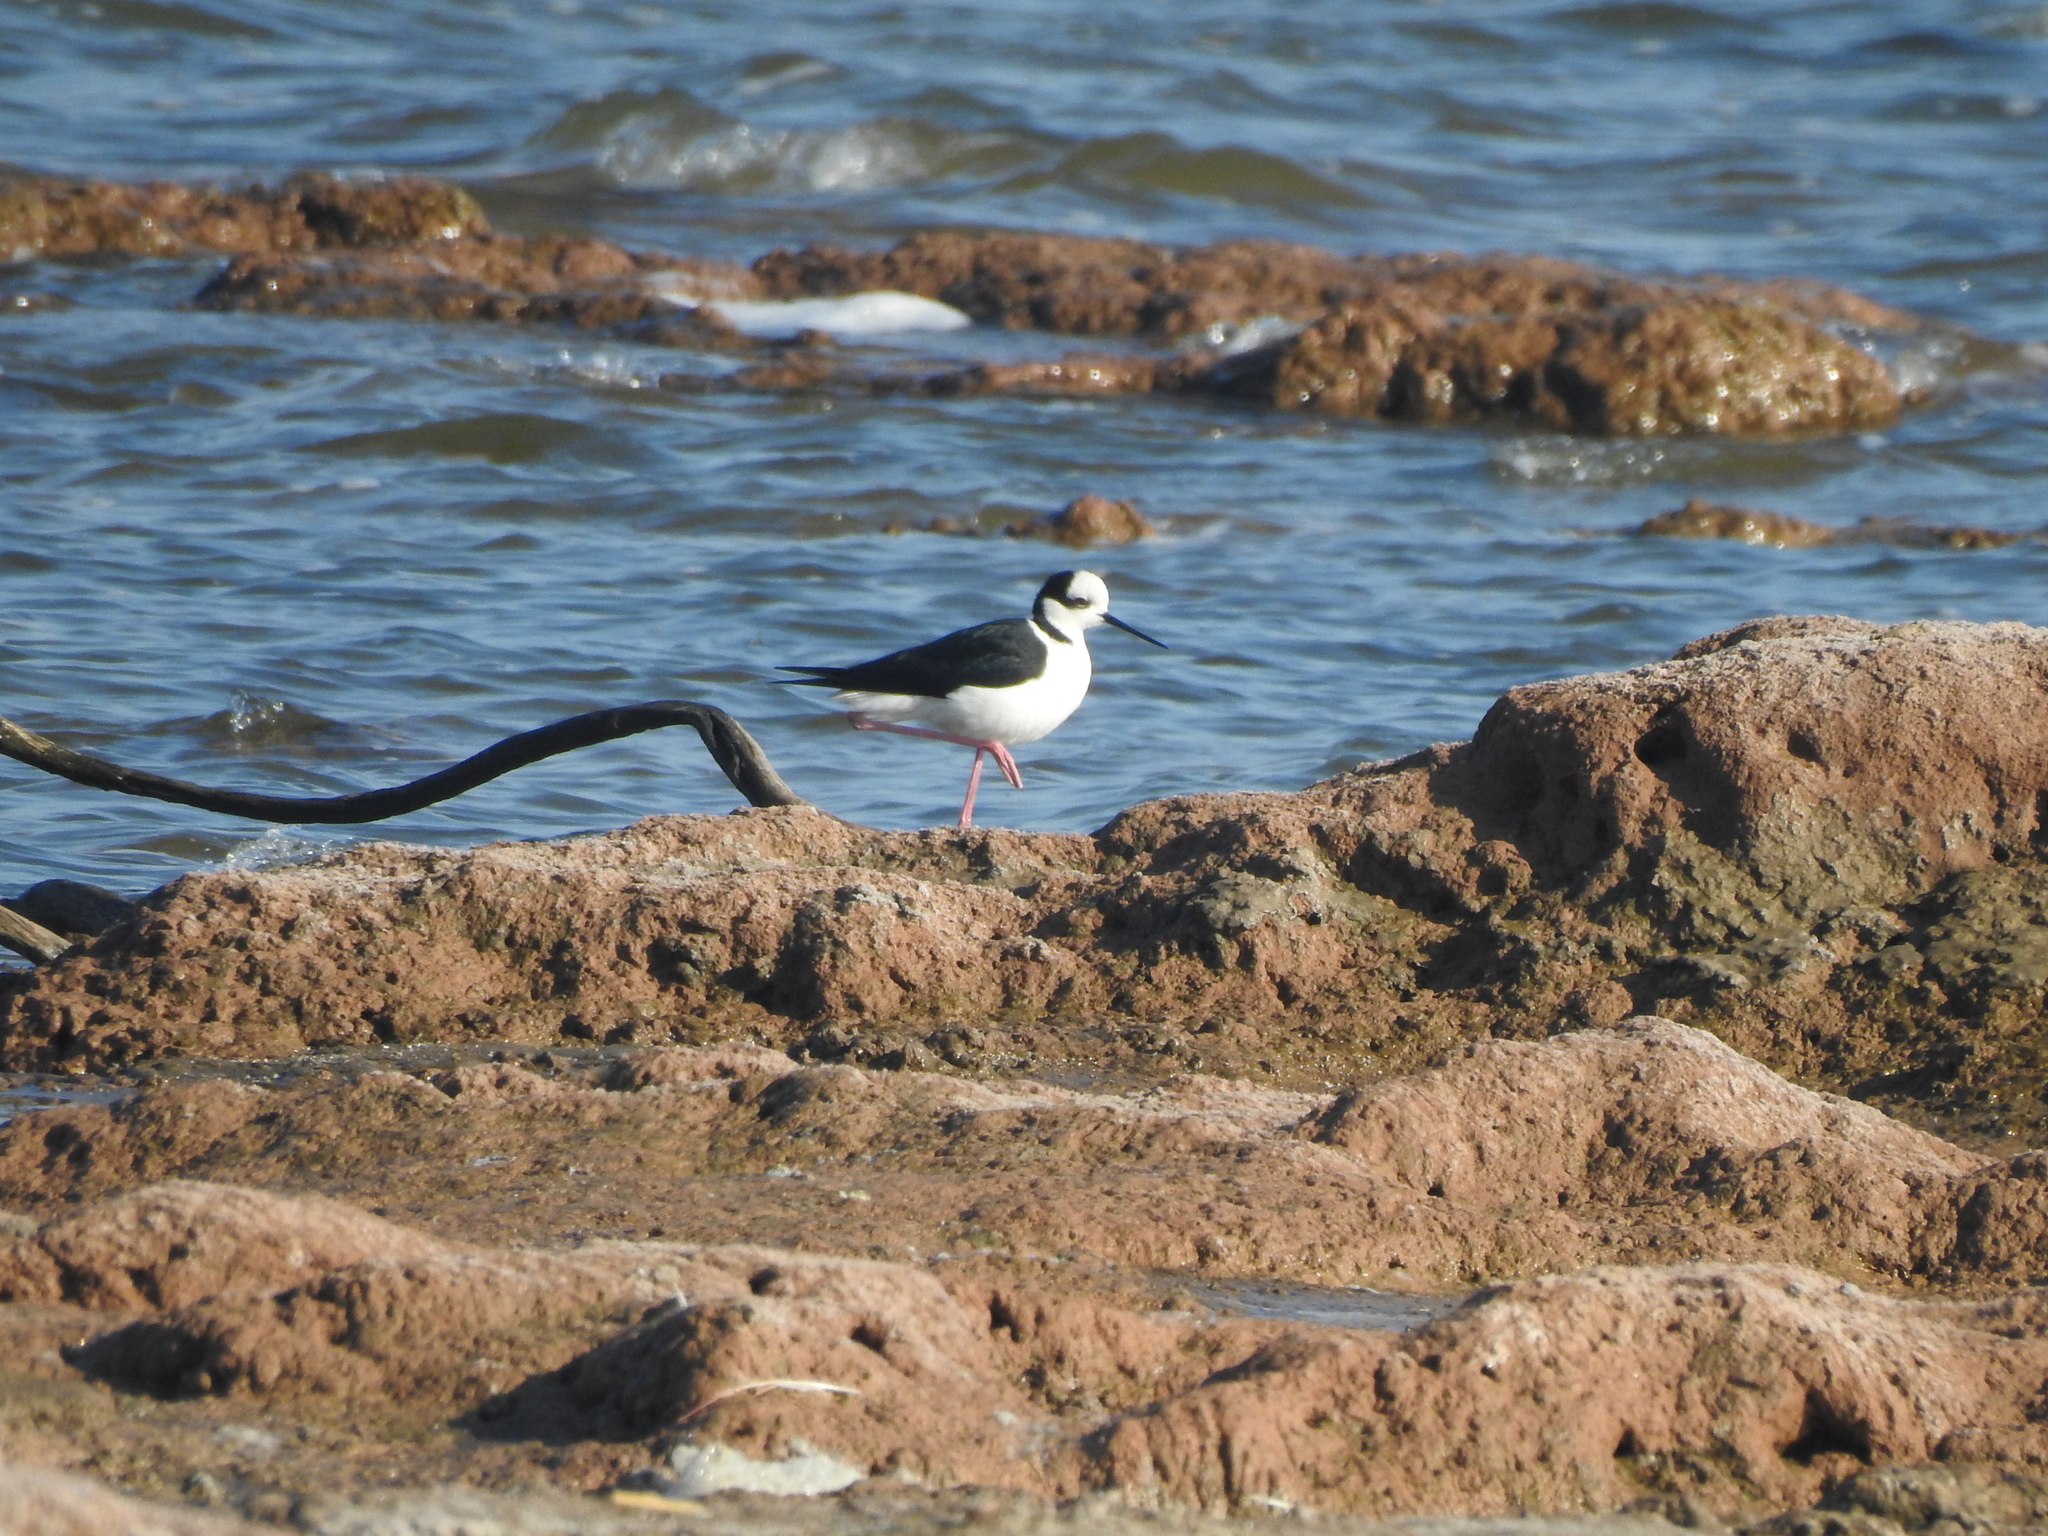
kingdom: Animalia
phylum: Chordata
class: Aves
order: Charadriiformes
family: Recurvirostridae
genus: Himantopus
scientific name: Himantopus mexicanus
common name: Black-necked stilt
